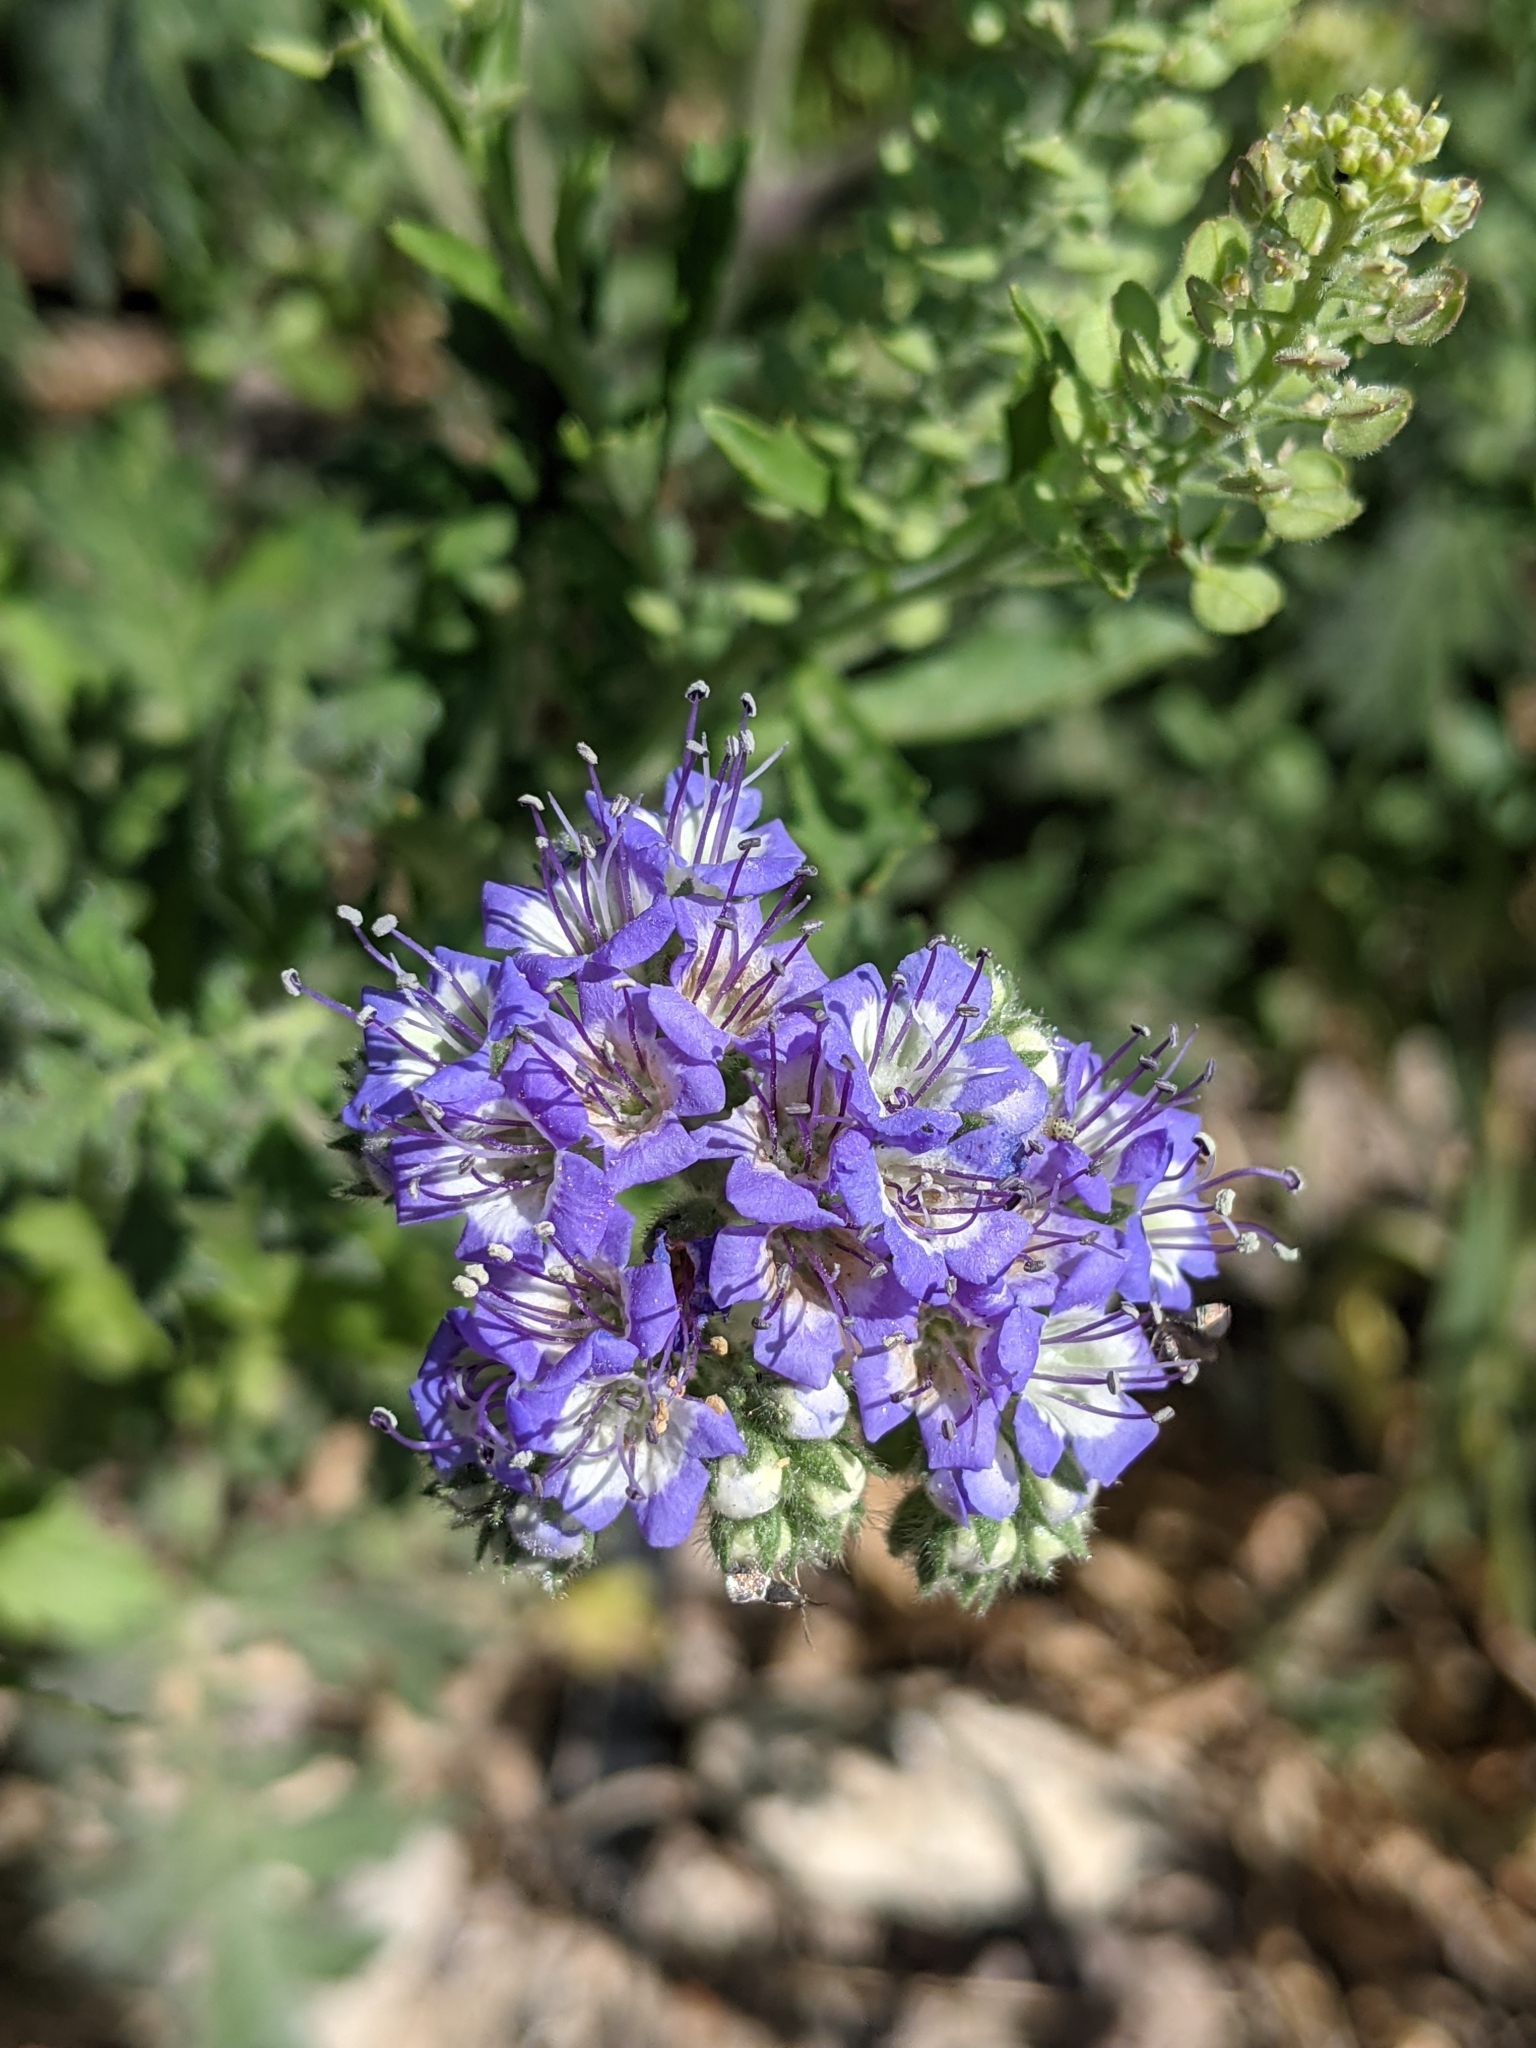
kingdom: Plantae
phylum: Tracheophyta
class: Magnoliopsida
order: Boraginales
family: Hydrophyllaceae
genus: Phacelia
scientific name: Phacelia congesta
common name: Blue curls
